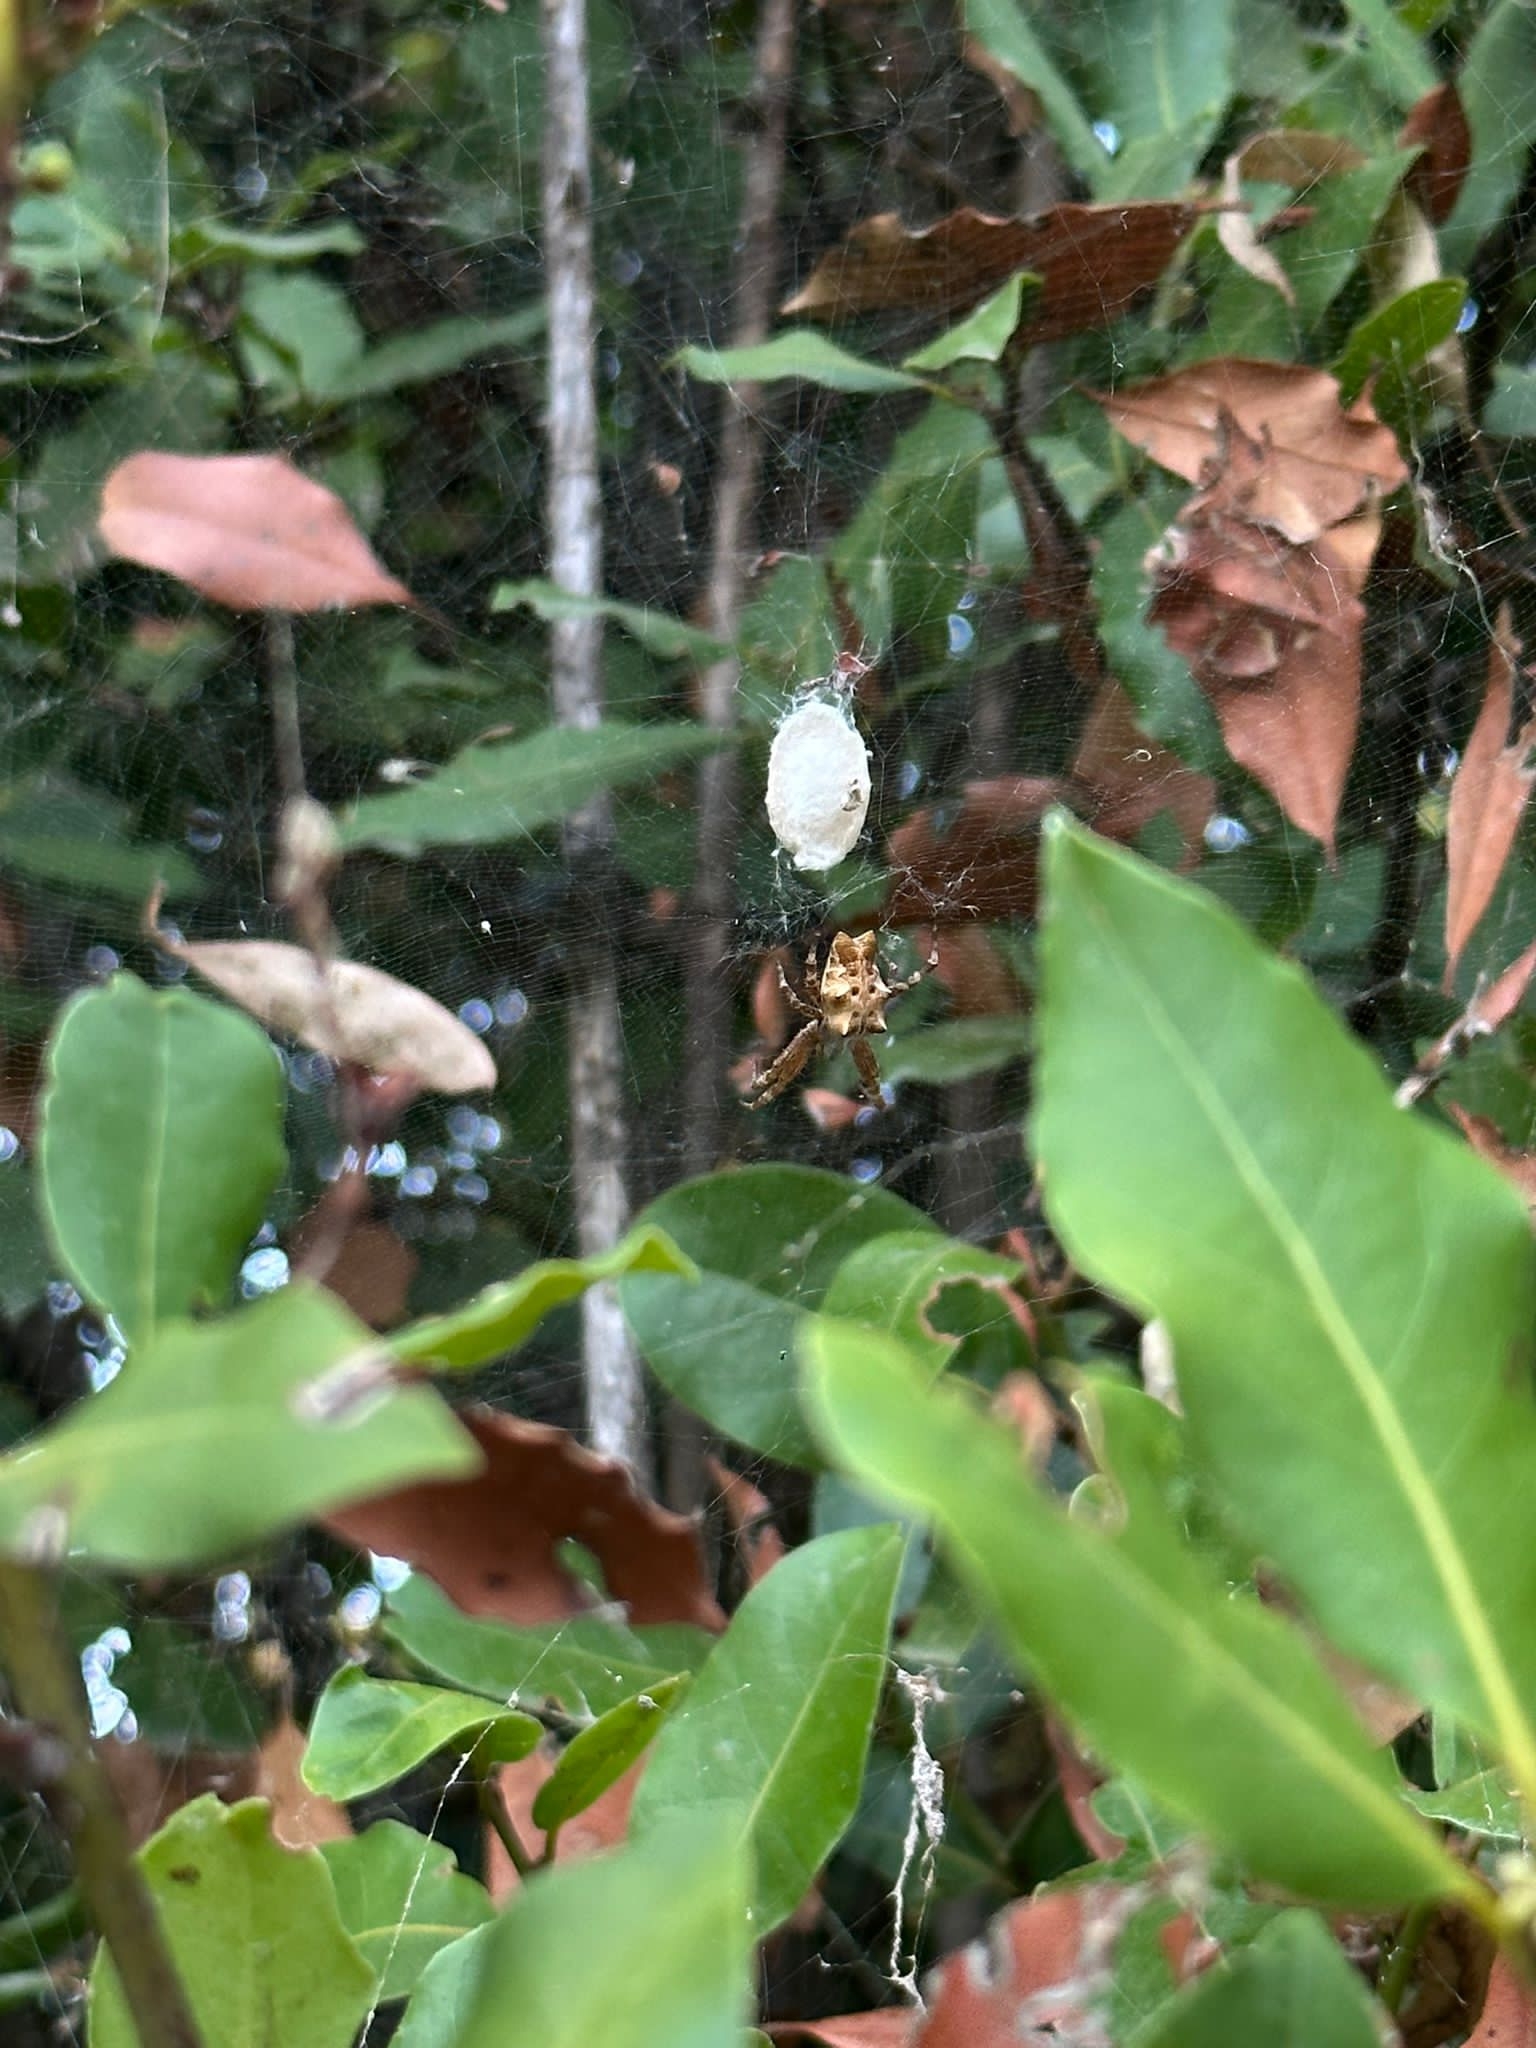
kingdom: Animalia
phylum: Arthropoda
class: Arachnida
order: Araneae
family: Araneidae
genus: Cyrtophora
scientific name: Cyrtophora citricola
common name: Orb weavers
